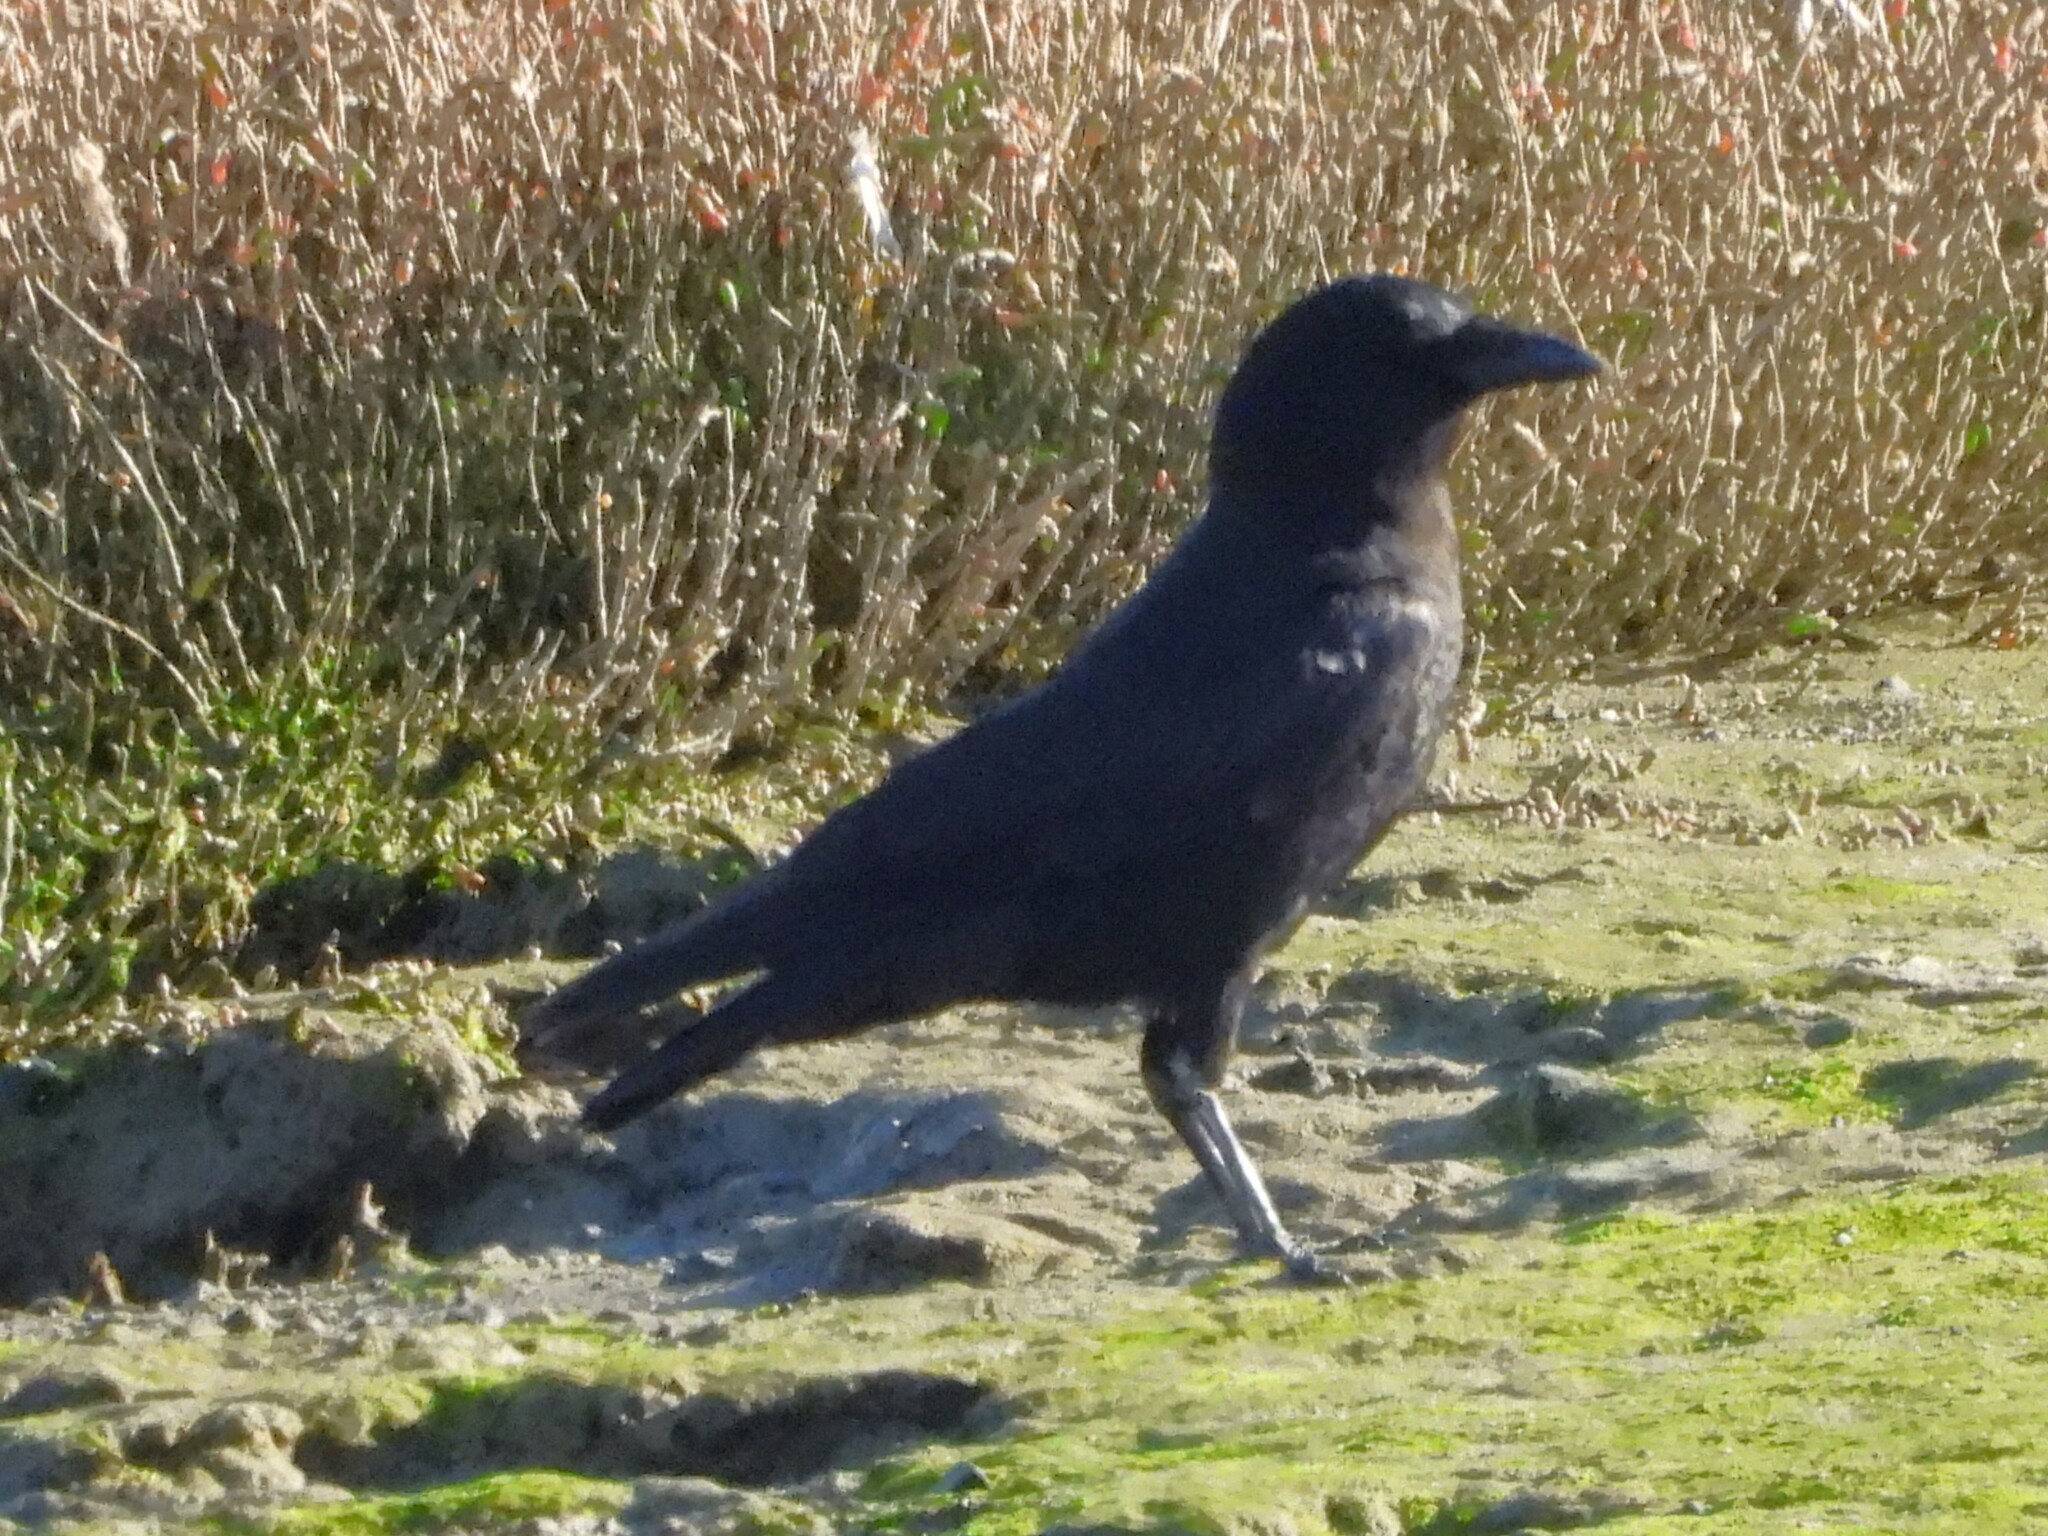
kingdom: Animalia
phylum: Chordata
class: Aves
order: Passeriformes
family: Corvidae
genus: Corvus
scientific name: Corvus brachyrhynchos
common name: American crow
